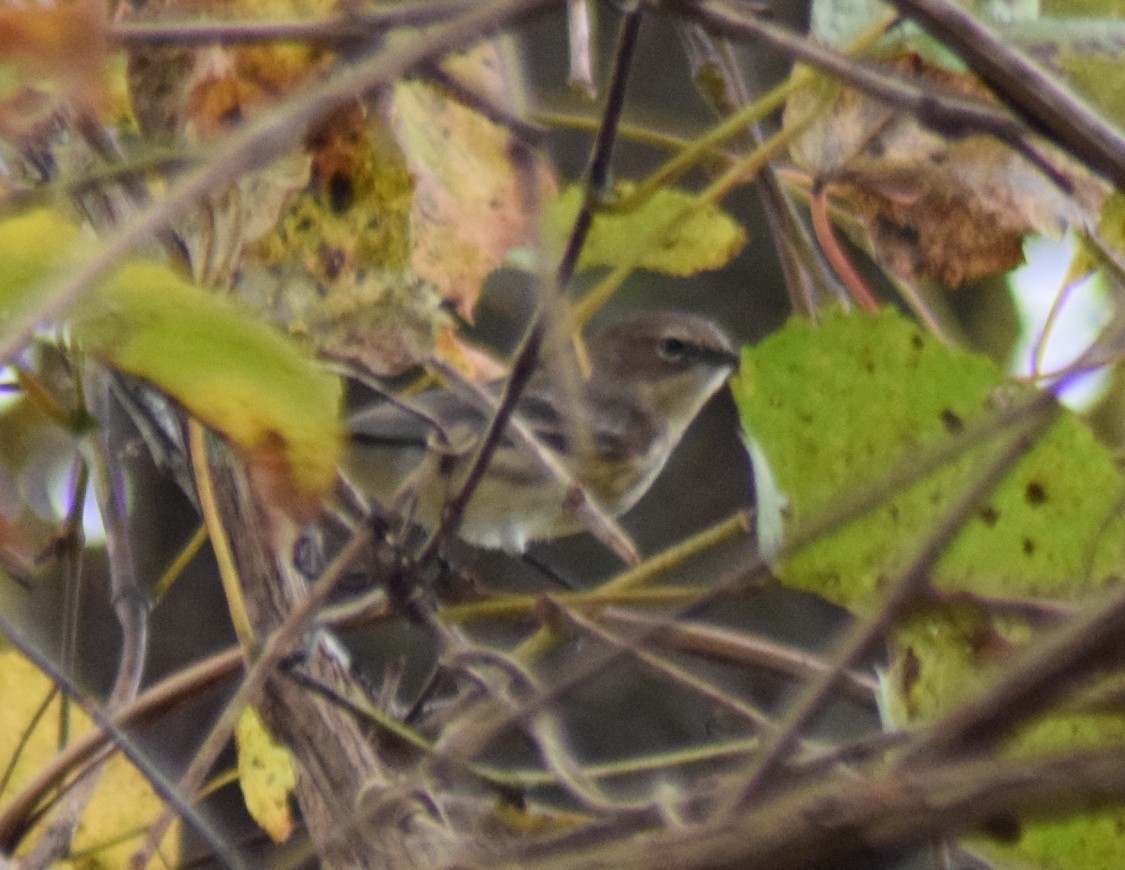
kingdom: Animalia
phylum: Chordata
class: Aves
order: Passeriformes
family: Parulidae
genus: Setophaga
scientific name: Setophaga coronata
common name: Myrtle warbler
